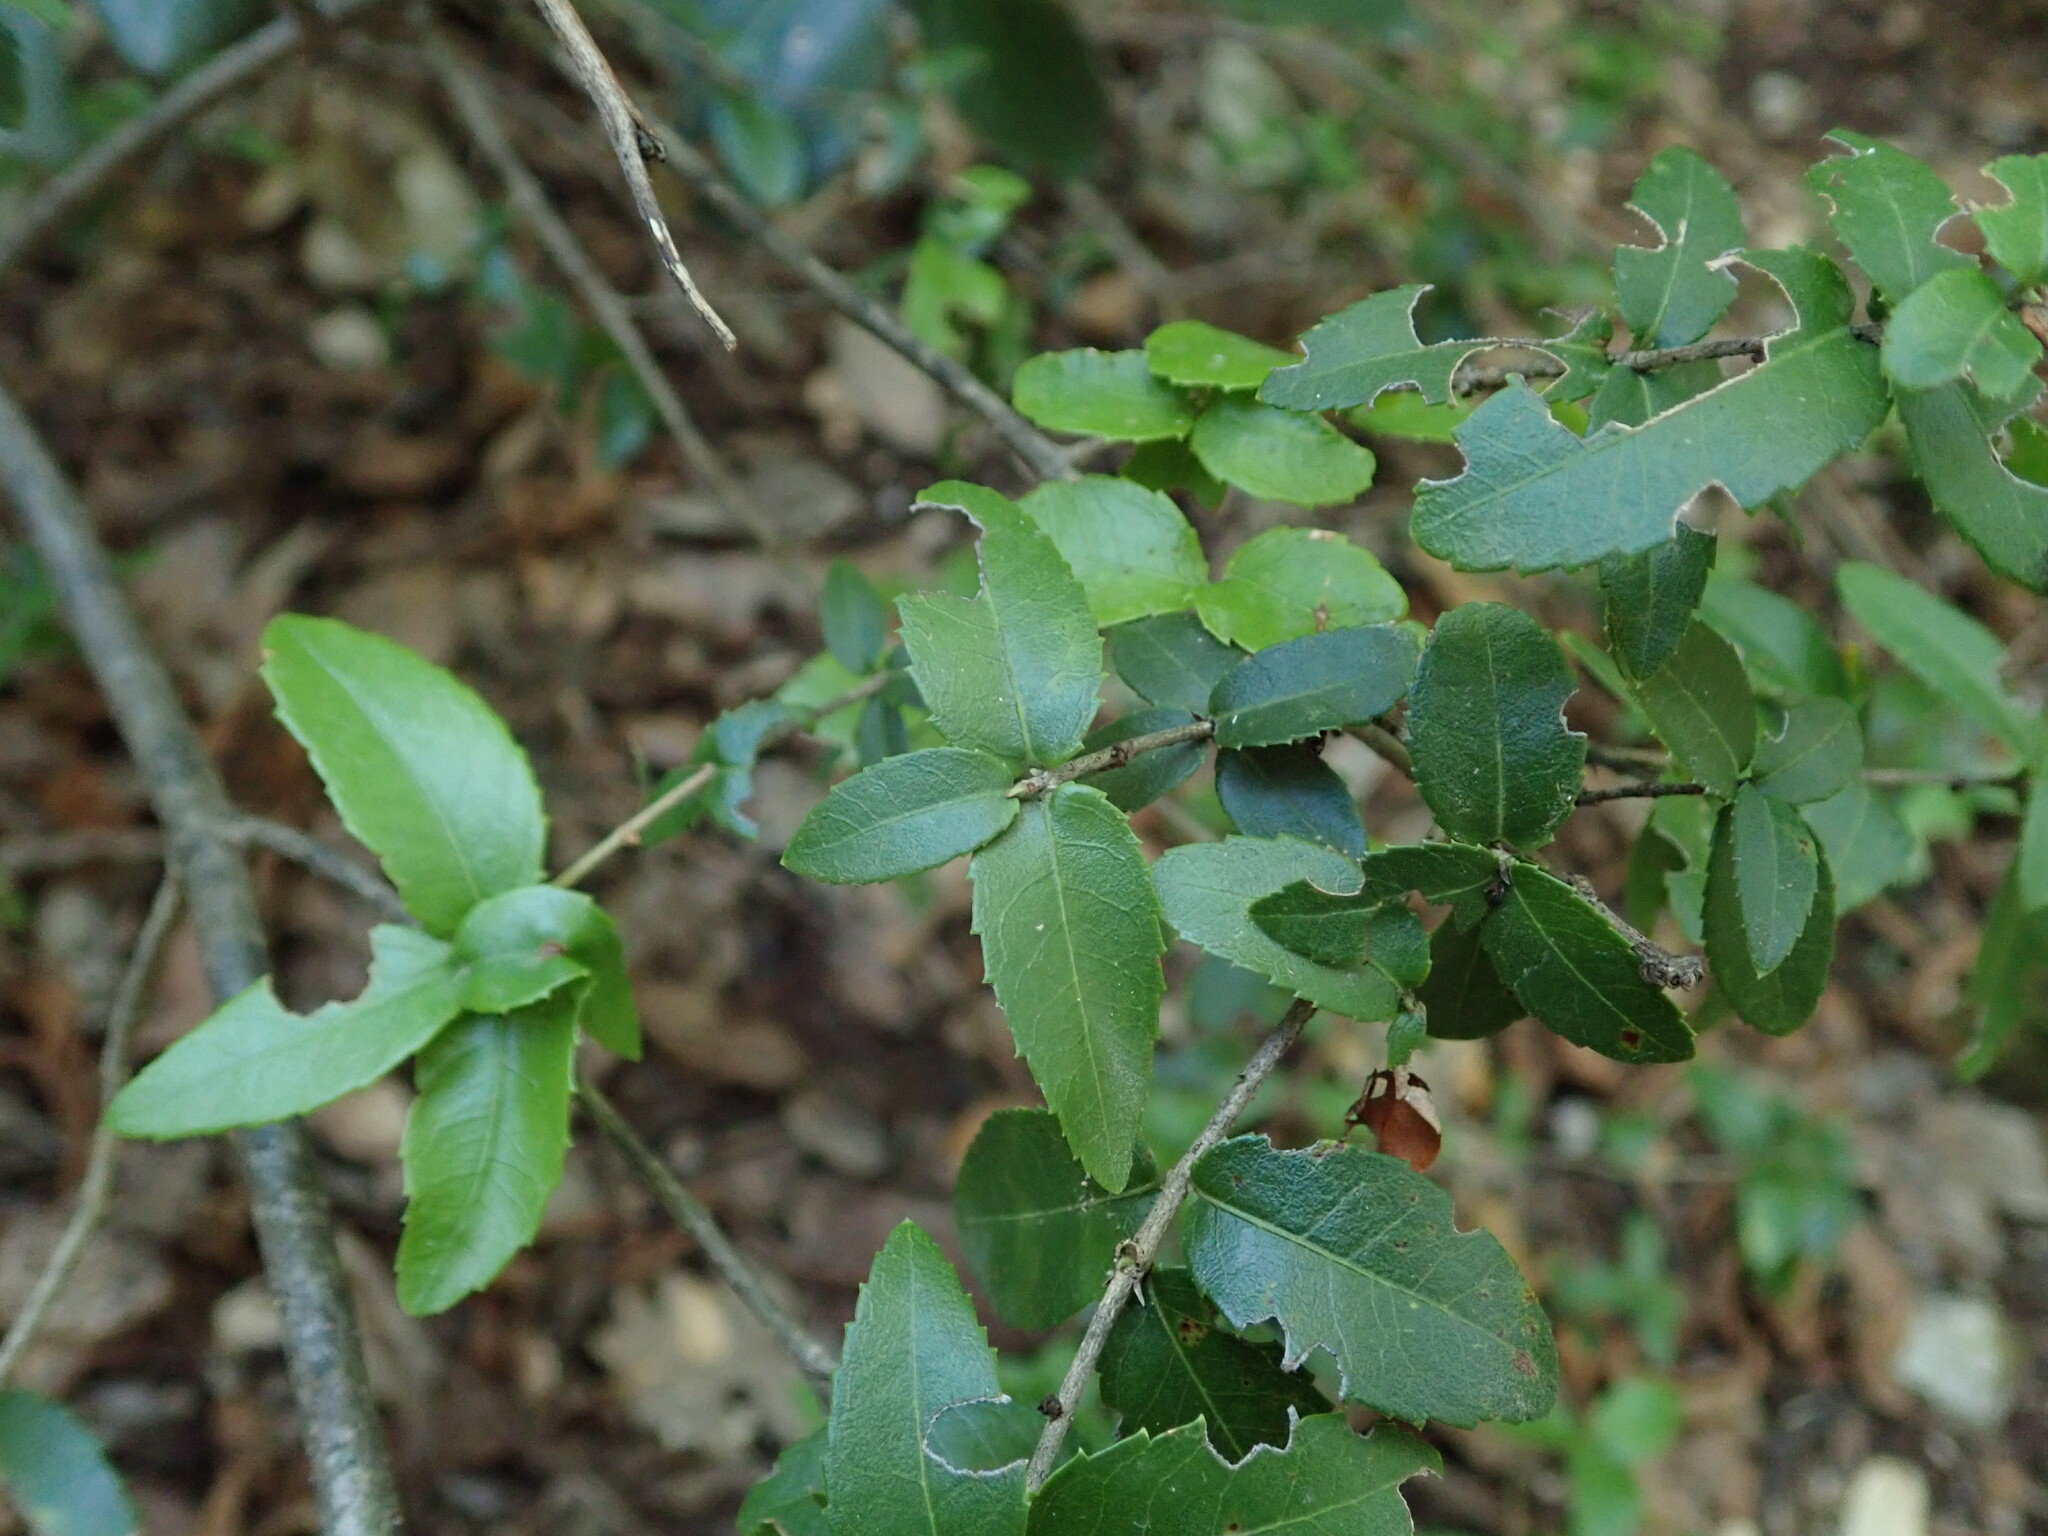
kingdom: Plantae
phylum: Tracheophyta
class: Magnoliopsida
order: Lamiales
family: Oleaceae
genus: Phillyrea
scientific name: Phillyrea latifolia
